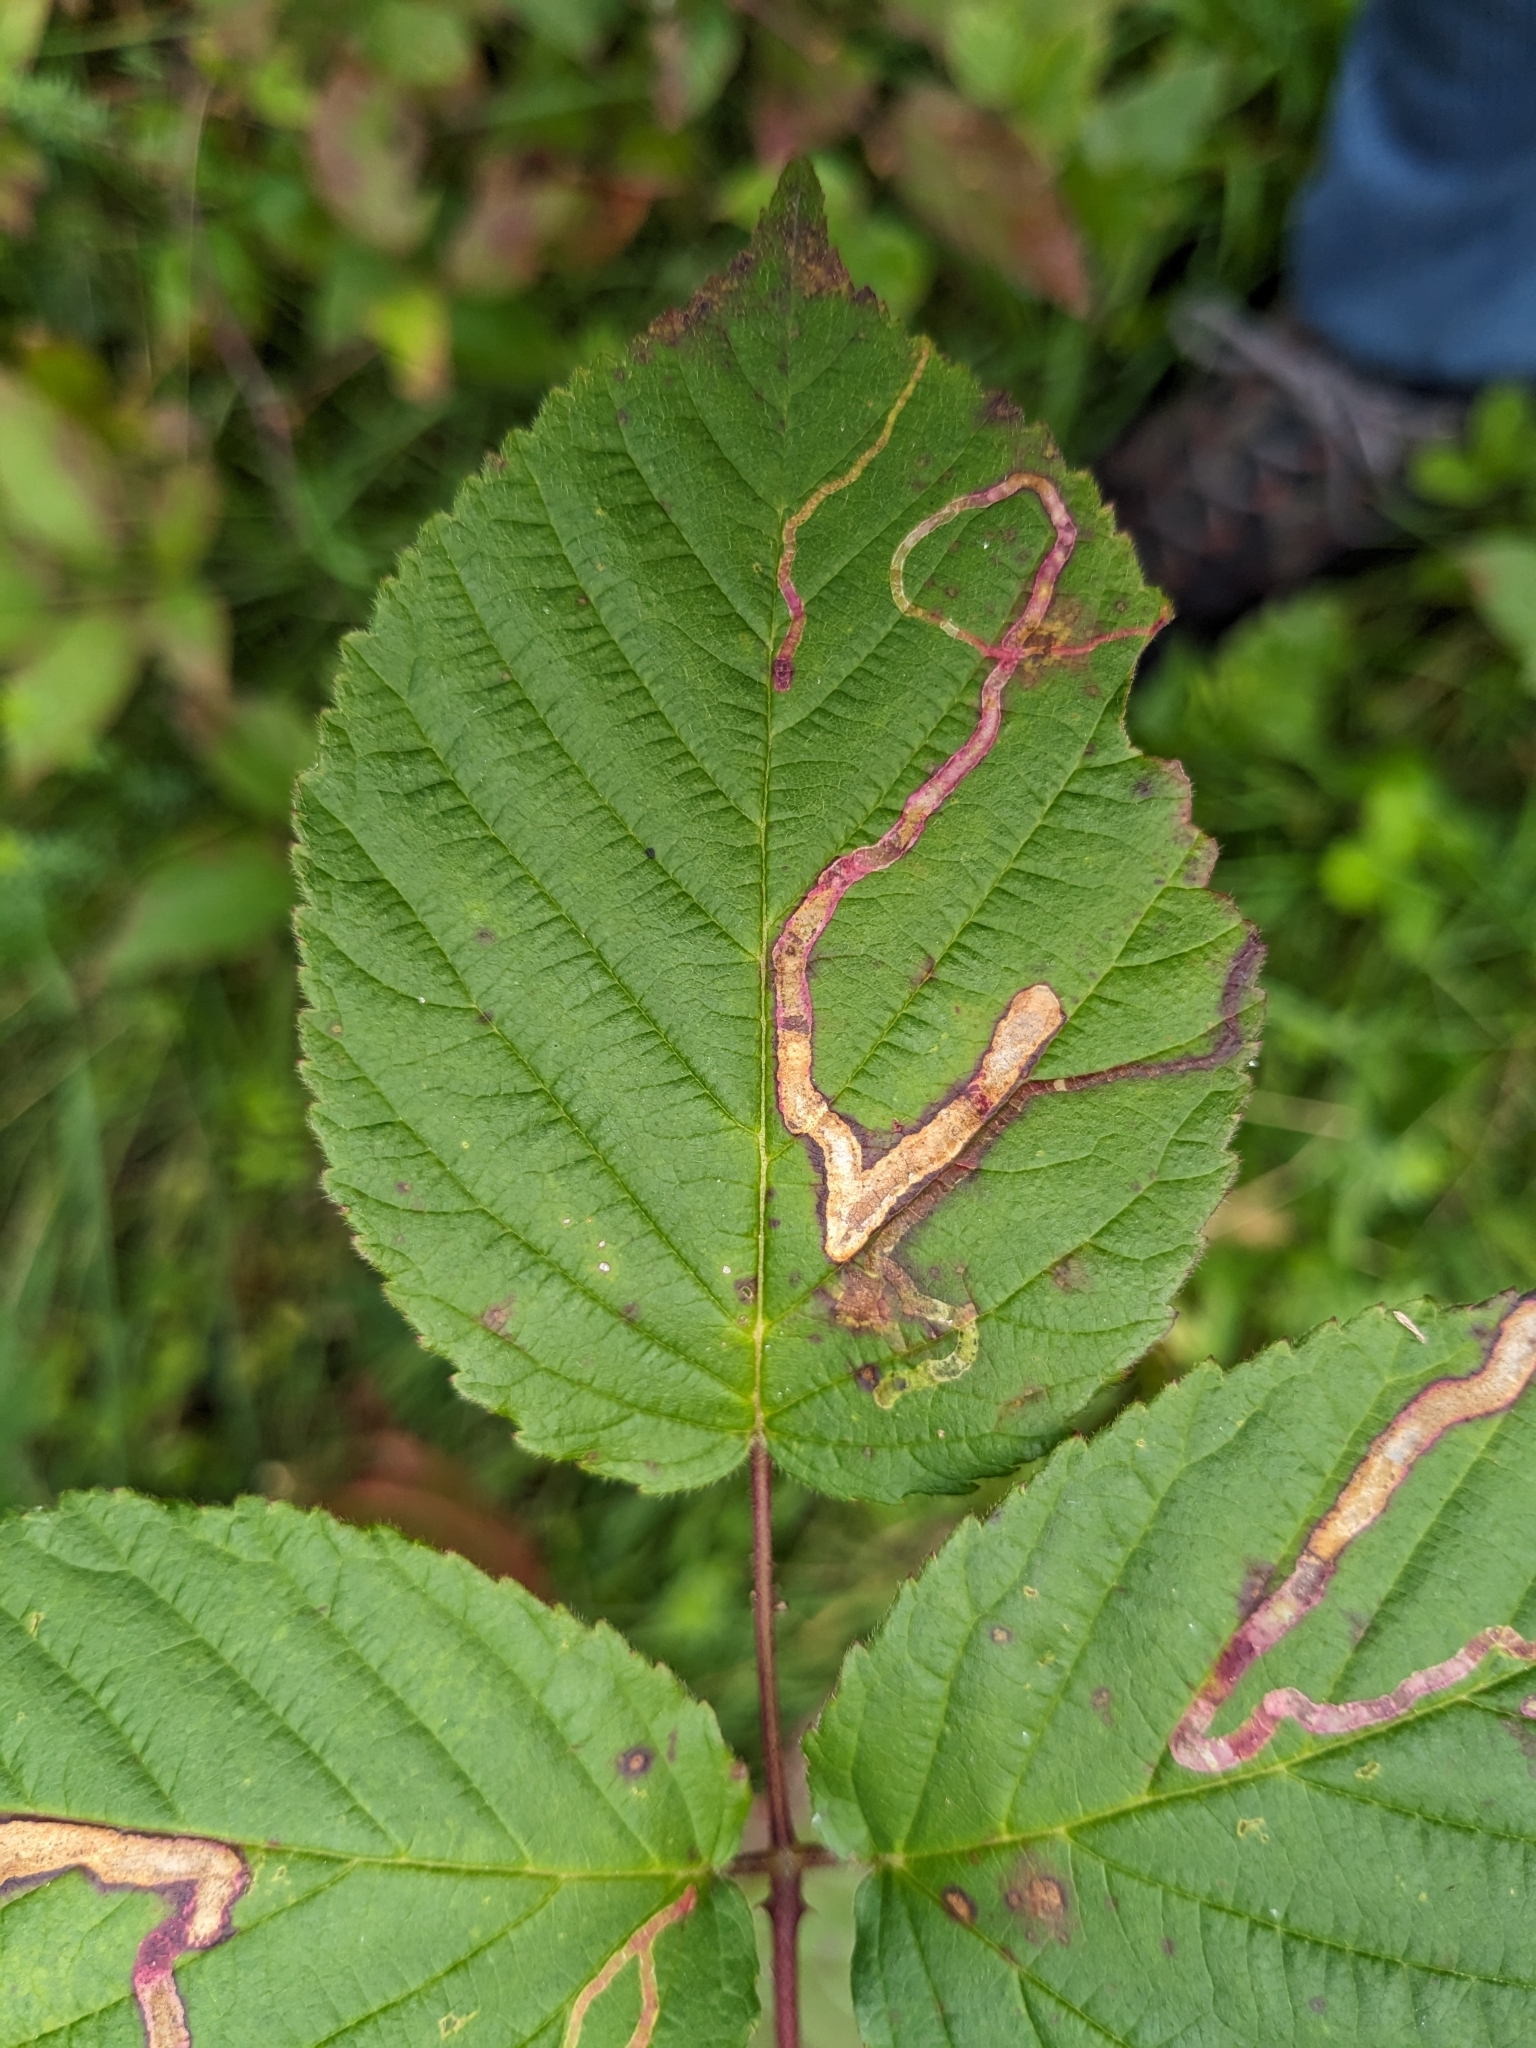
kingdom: Animalia
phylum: Arthropoda
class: Insecta
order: Diptera
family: Agromyzidae
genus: Agromyza
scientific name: Agromyza vockerothi
